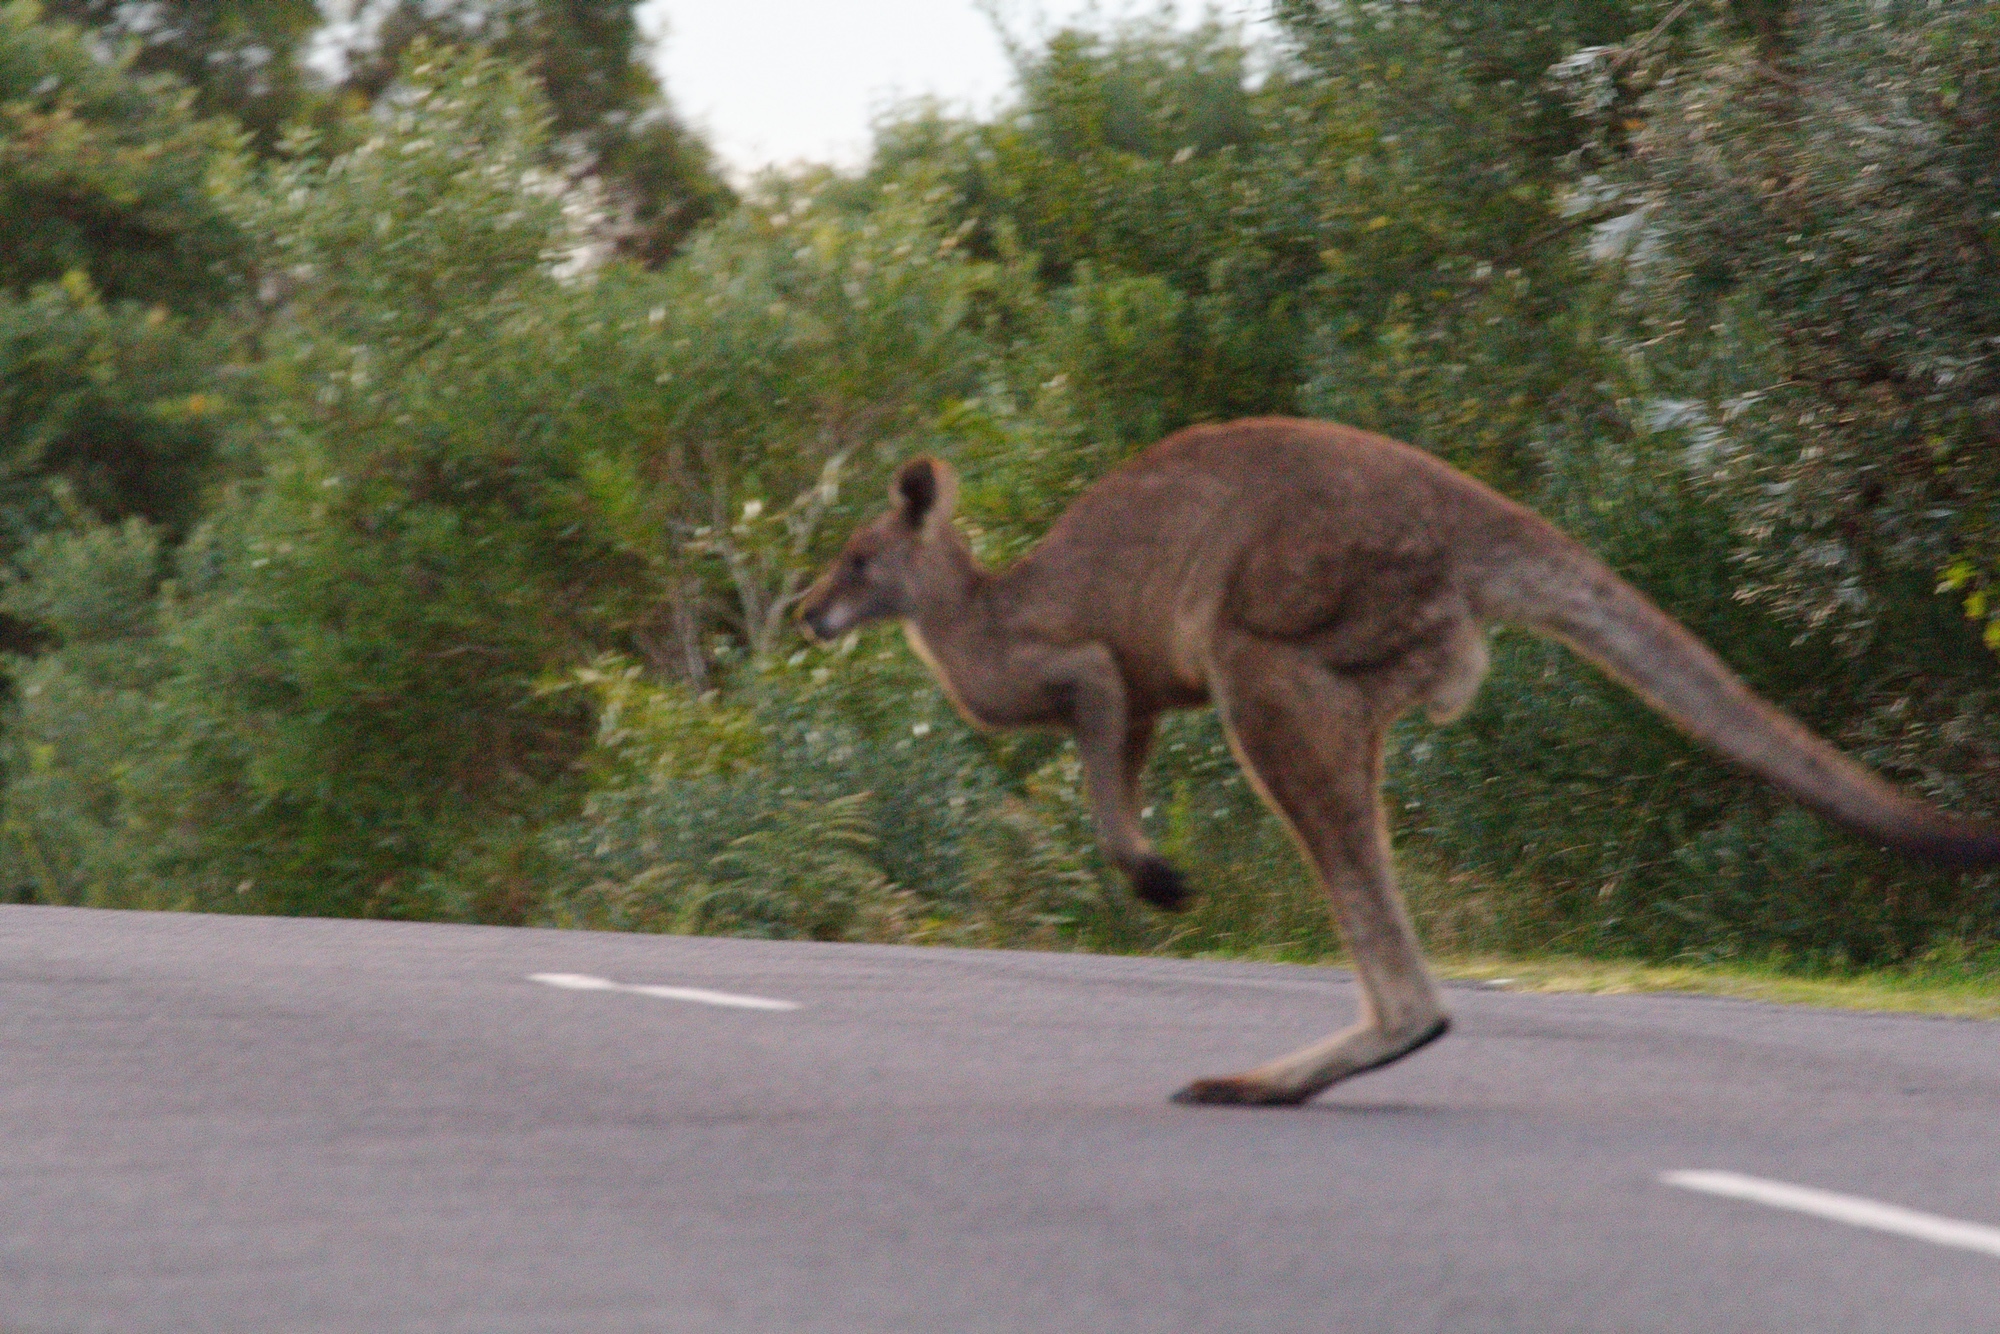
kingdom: Animalia
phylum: Chordata
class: Mammalia
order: Diprotodontia
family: Macropodidae
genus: Macropus
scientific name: Macropus giganteus
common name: Eastern grey kangaroo
